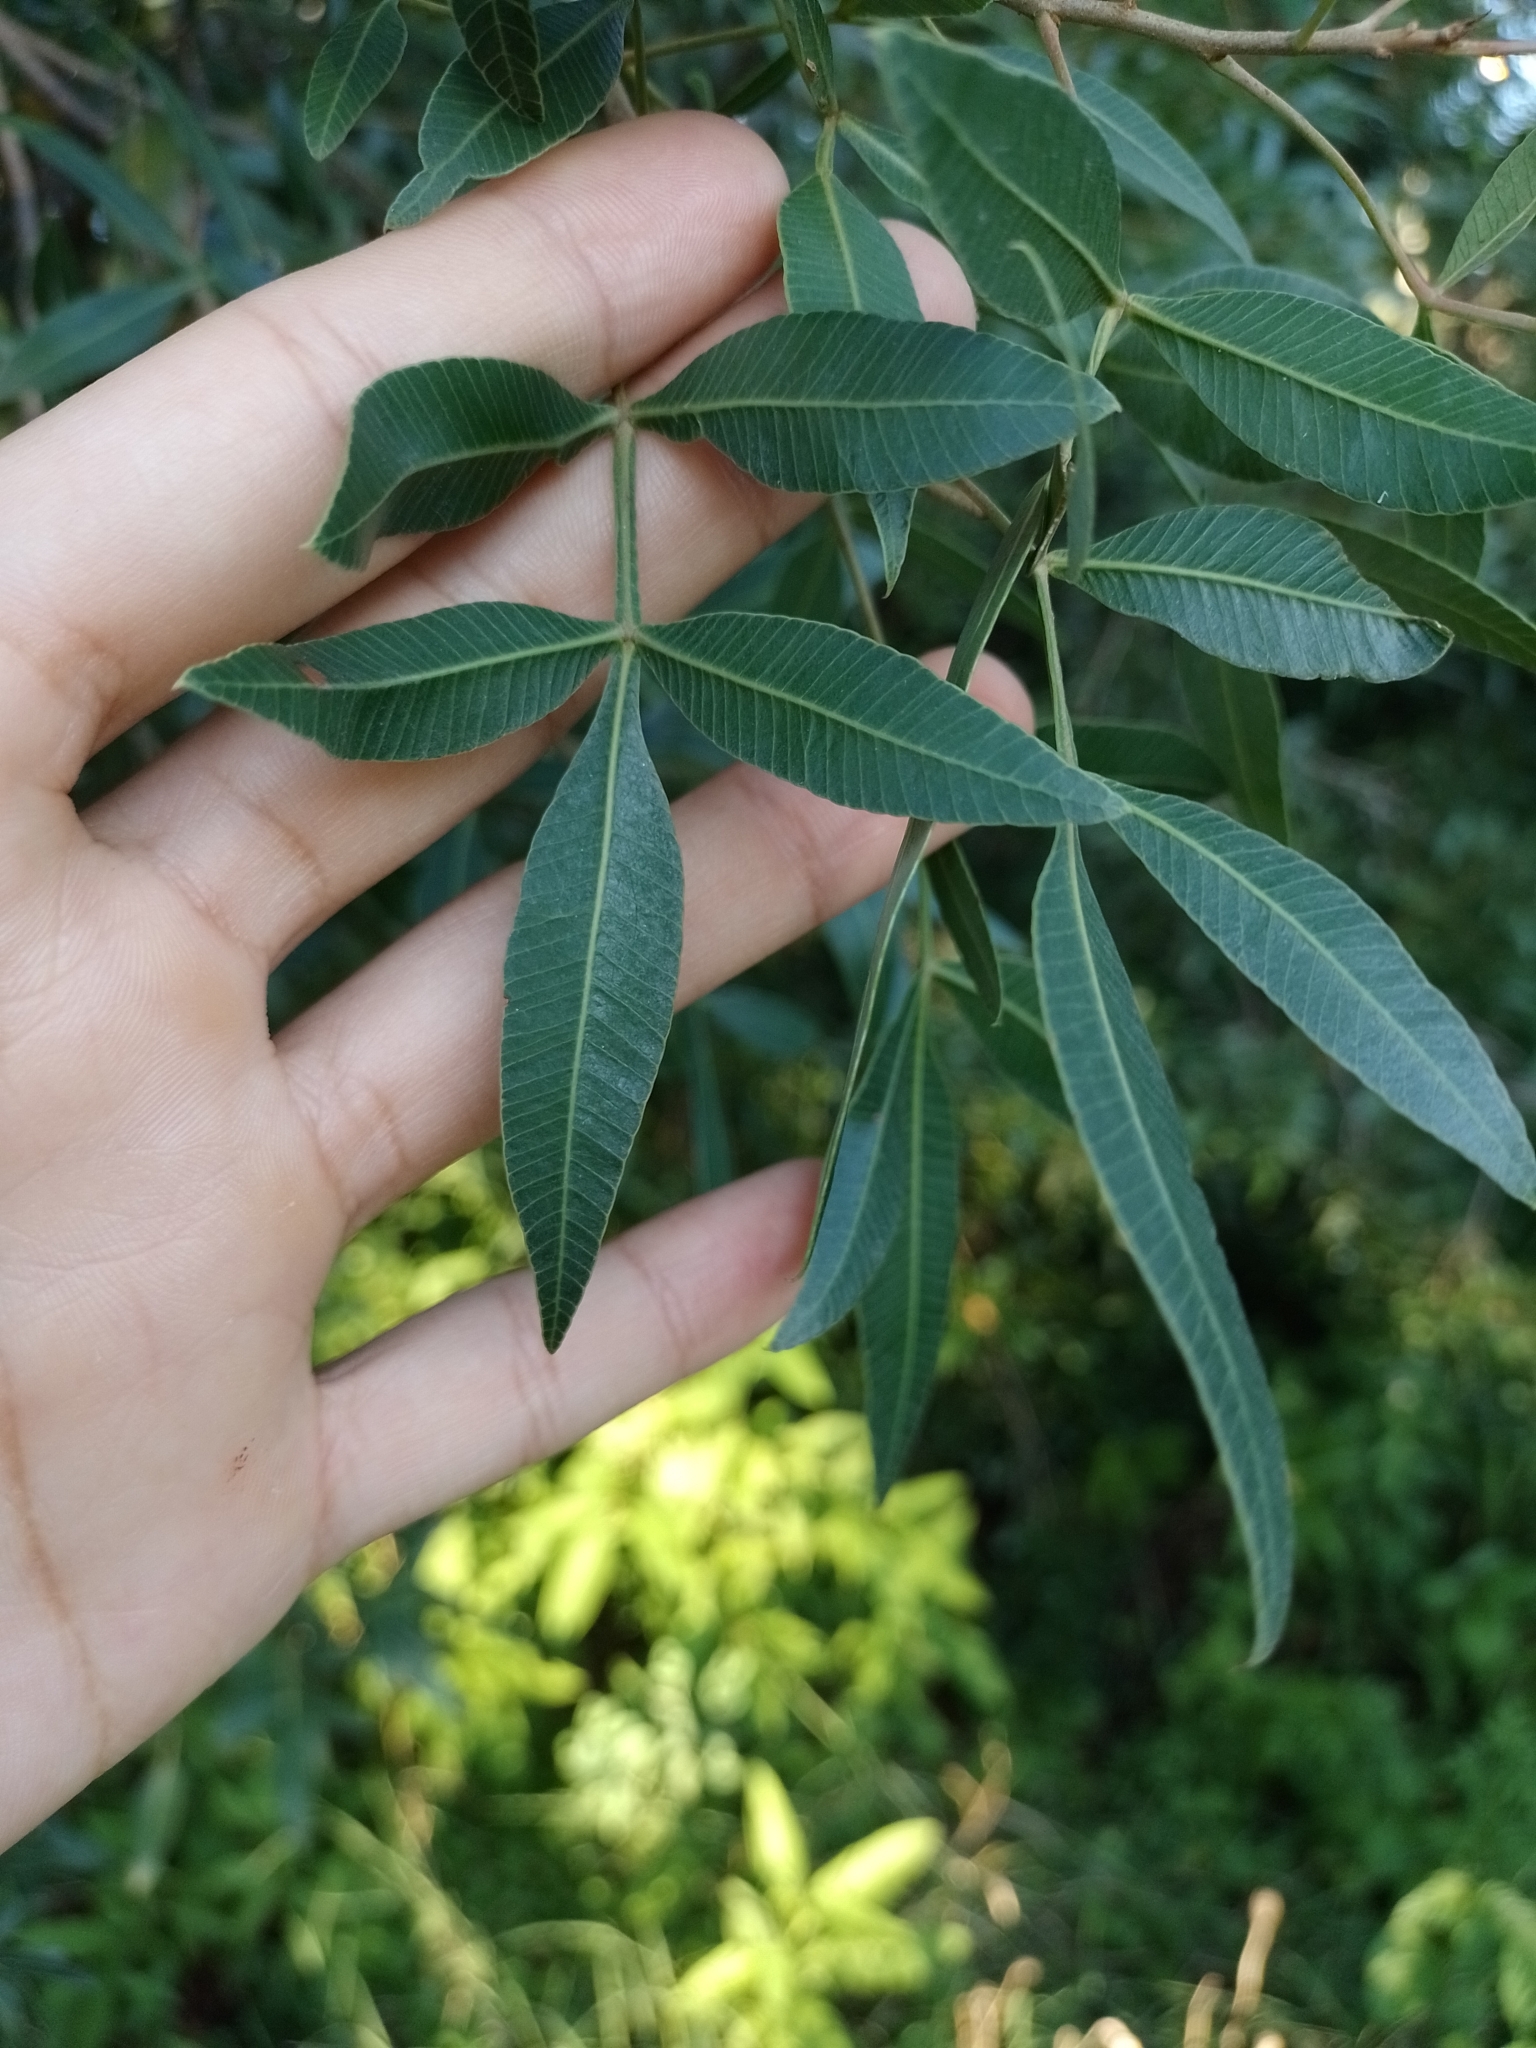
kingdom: Plantae
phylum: Tracheophyta
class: Magnoliopsida
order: Sapindales
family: Anacardiaceae
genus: Lithraea
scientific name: Lithraea molleoides
